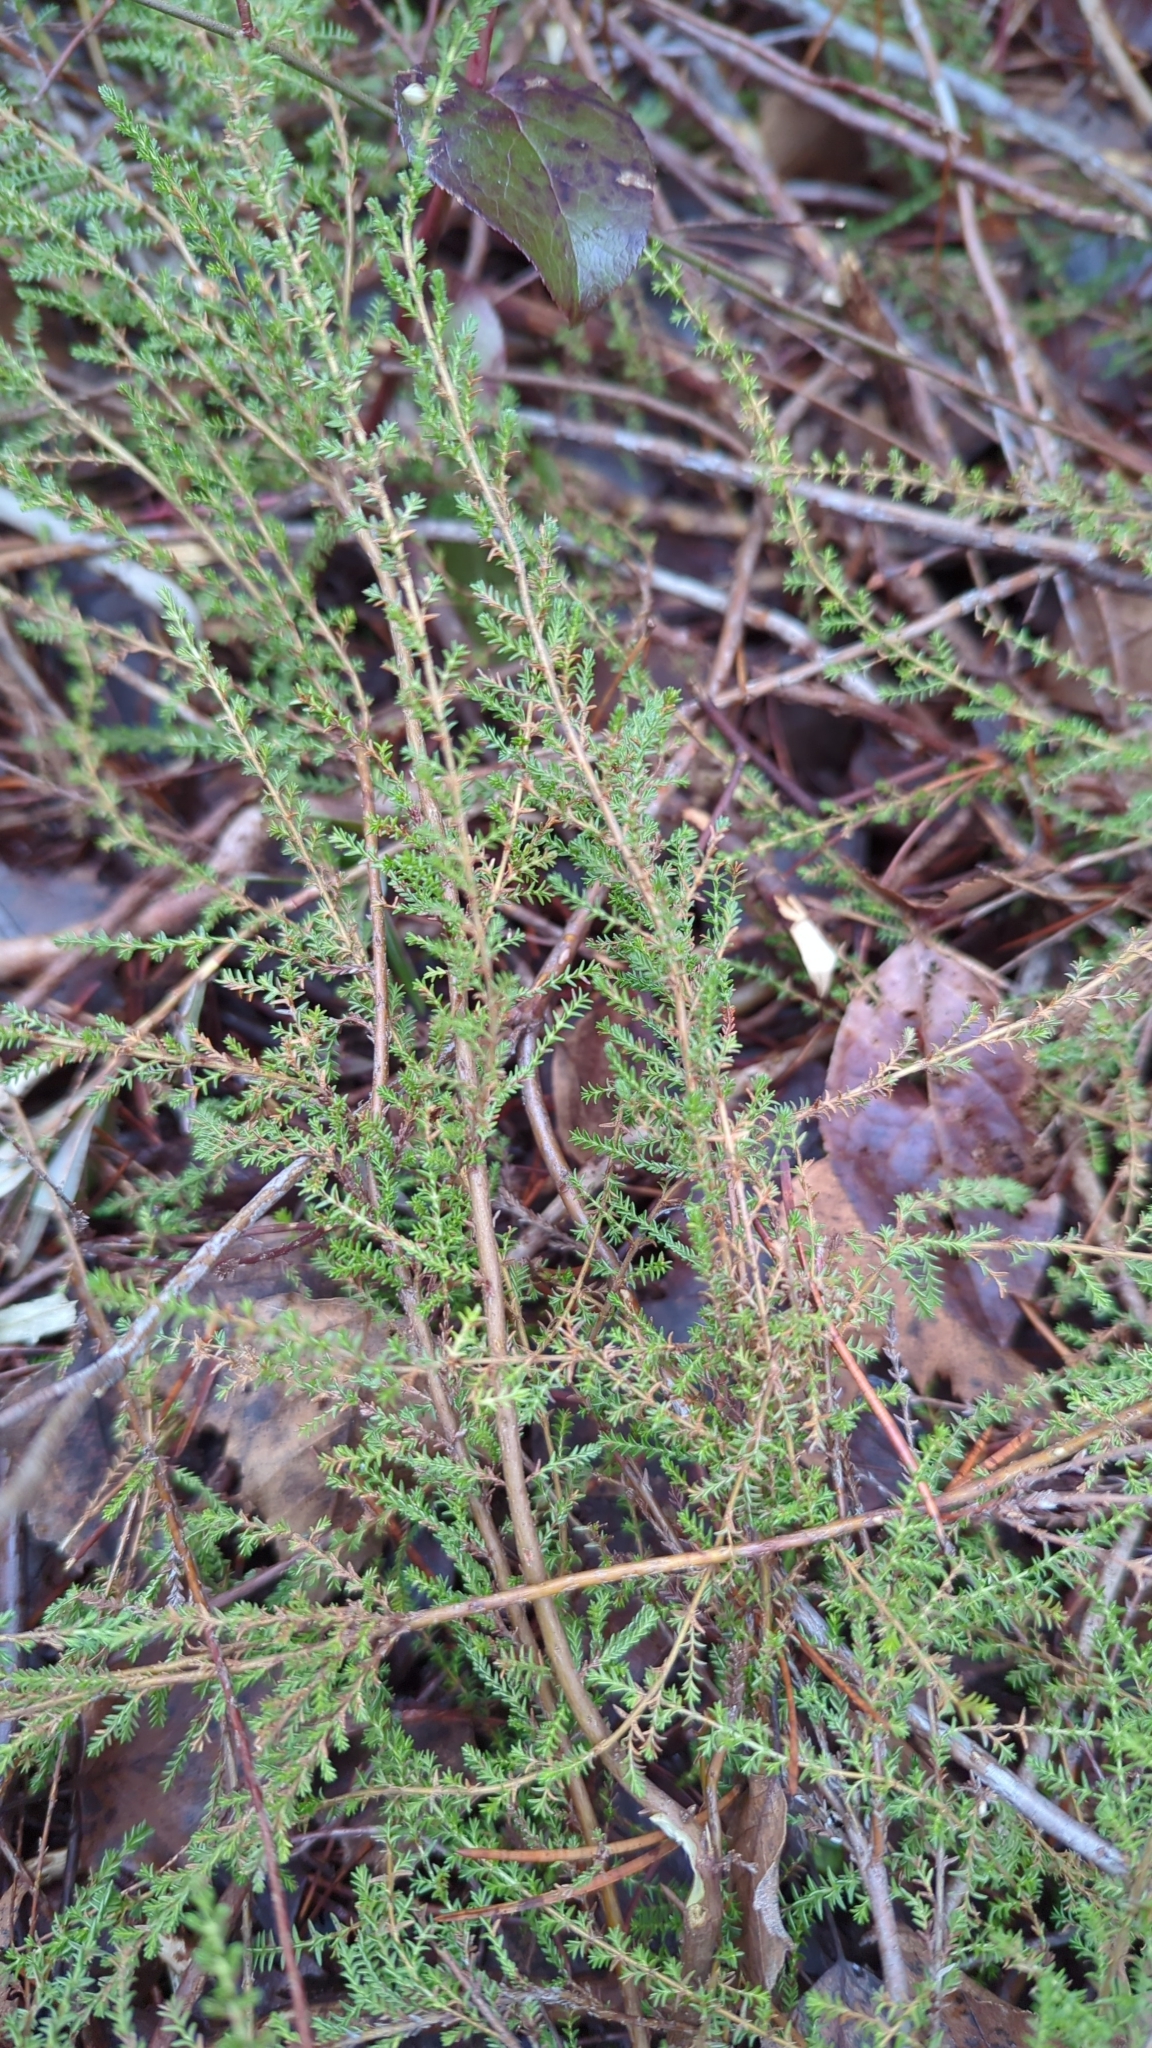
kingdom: Plantae
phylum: Tracheophyta
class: Magnoliopsida
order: Ericales
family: Ericaceae
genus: Calluna
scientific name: Calluna vulgaris
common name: Heather
